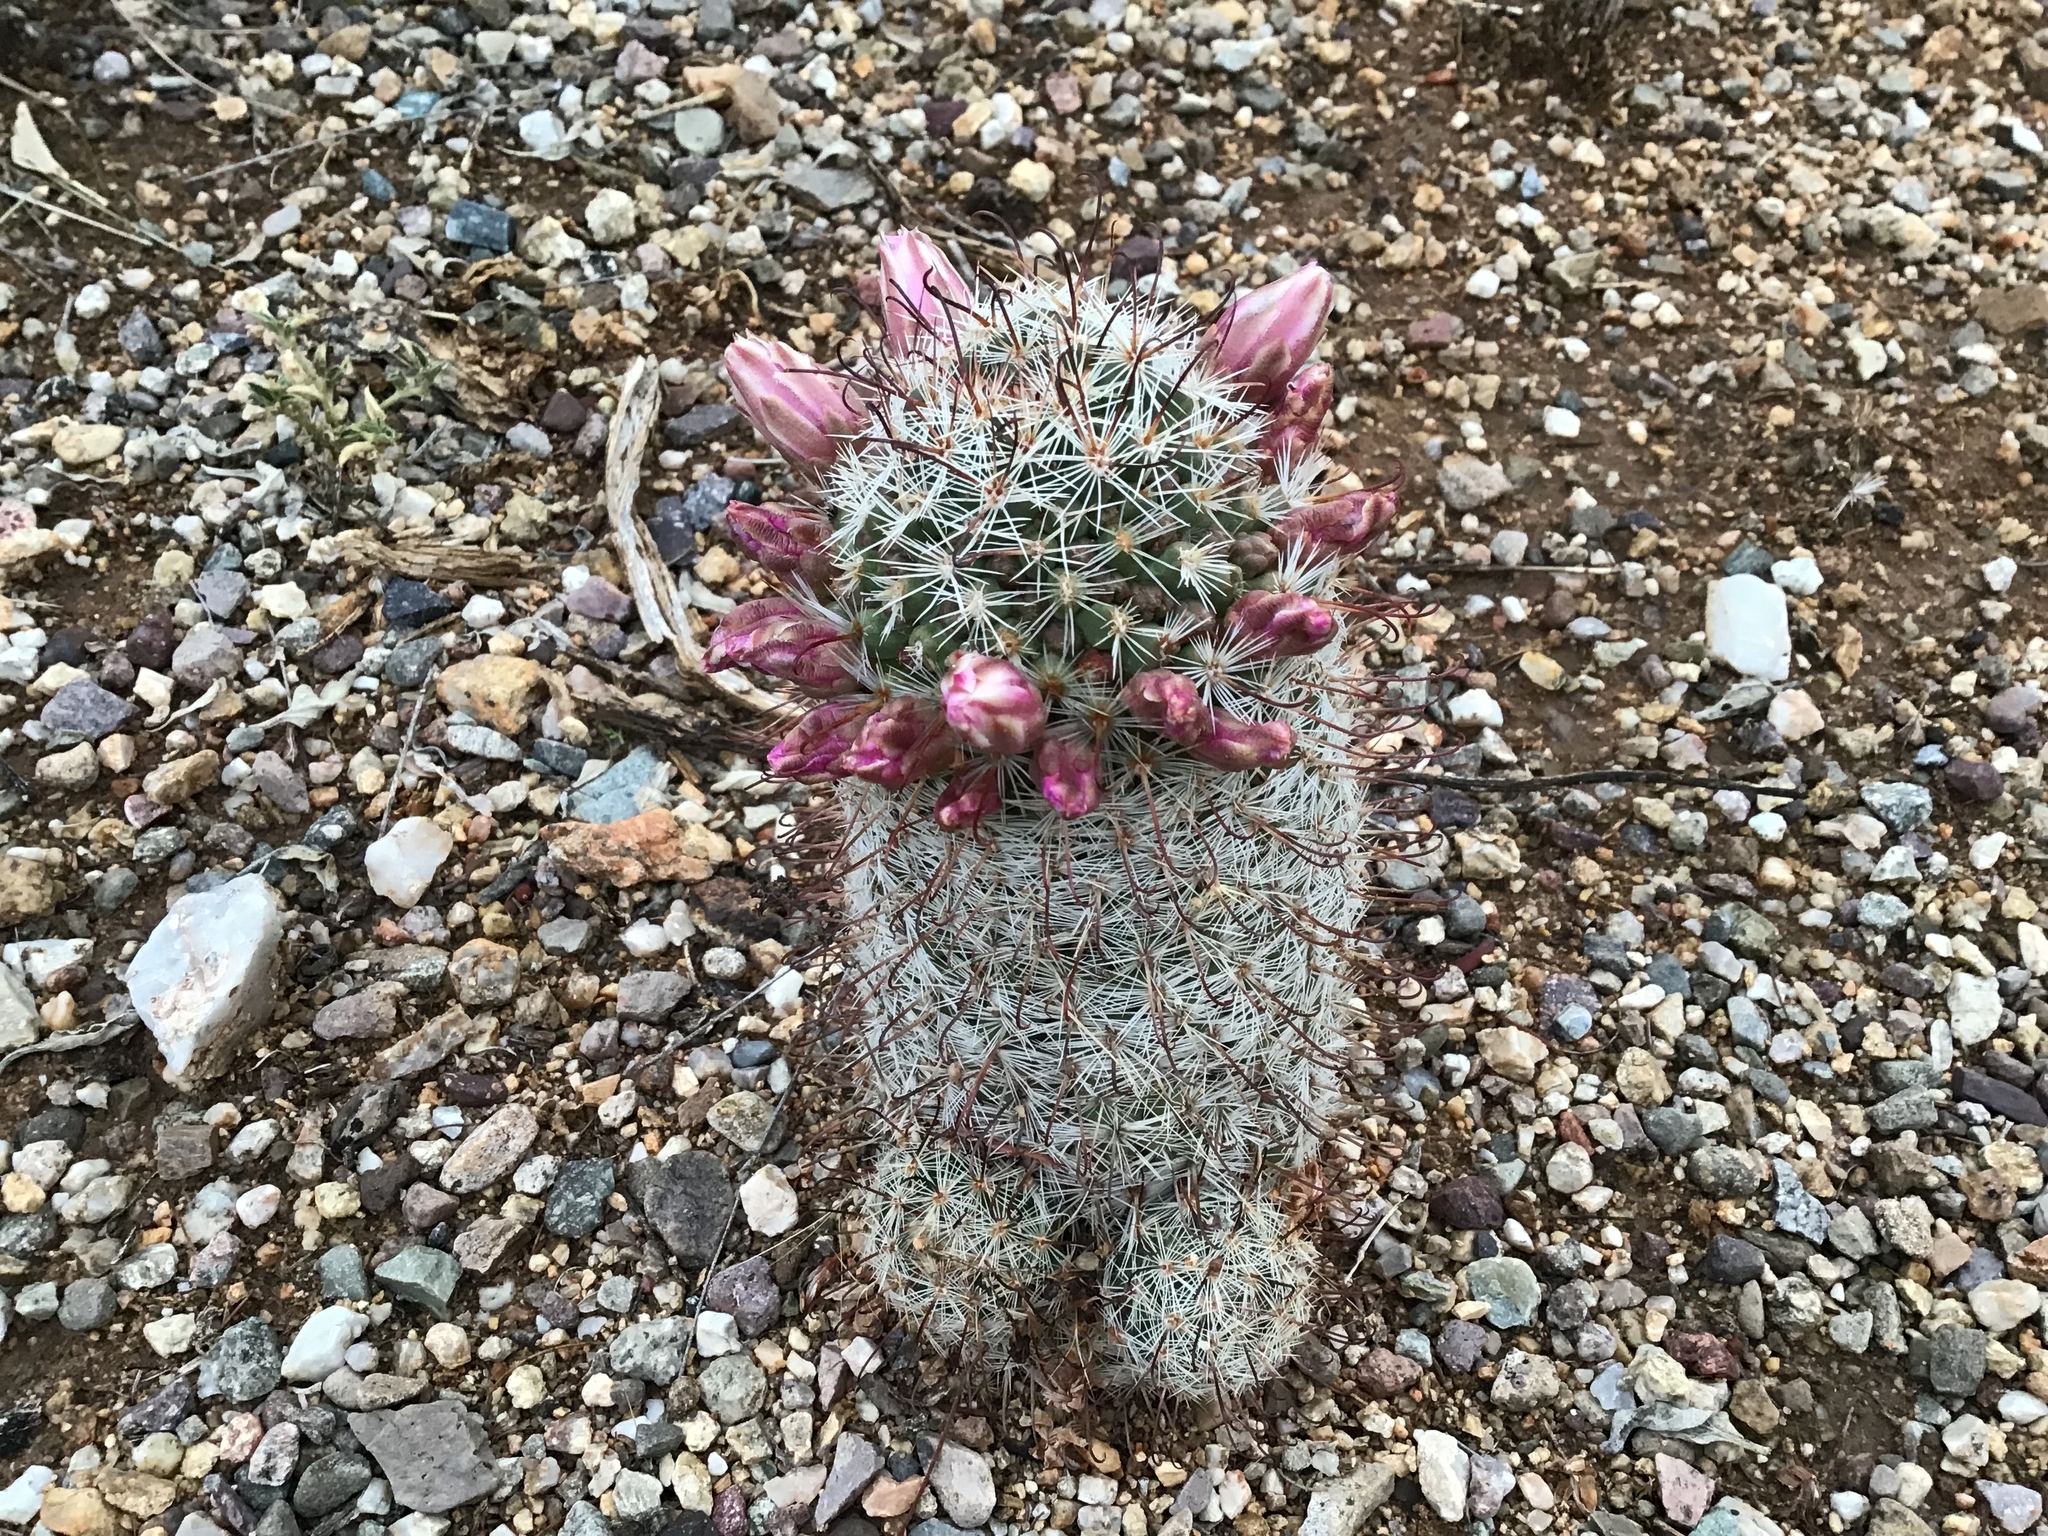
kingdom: Plantae
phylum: Tracheophyta
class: Magnoliopsida
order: Caryophyllales
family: Cactaceae
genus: Cochemiea
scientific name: Cochemiea grahamii
